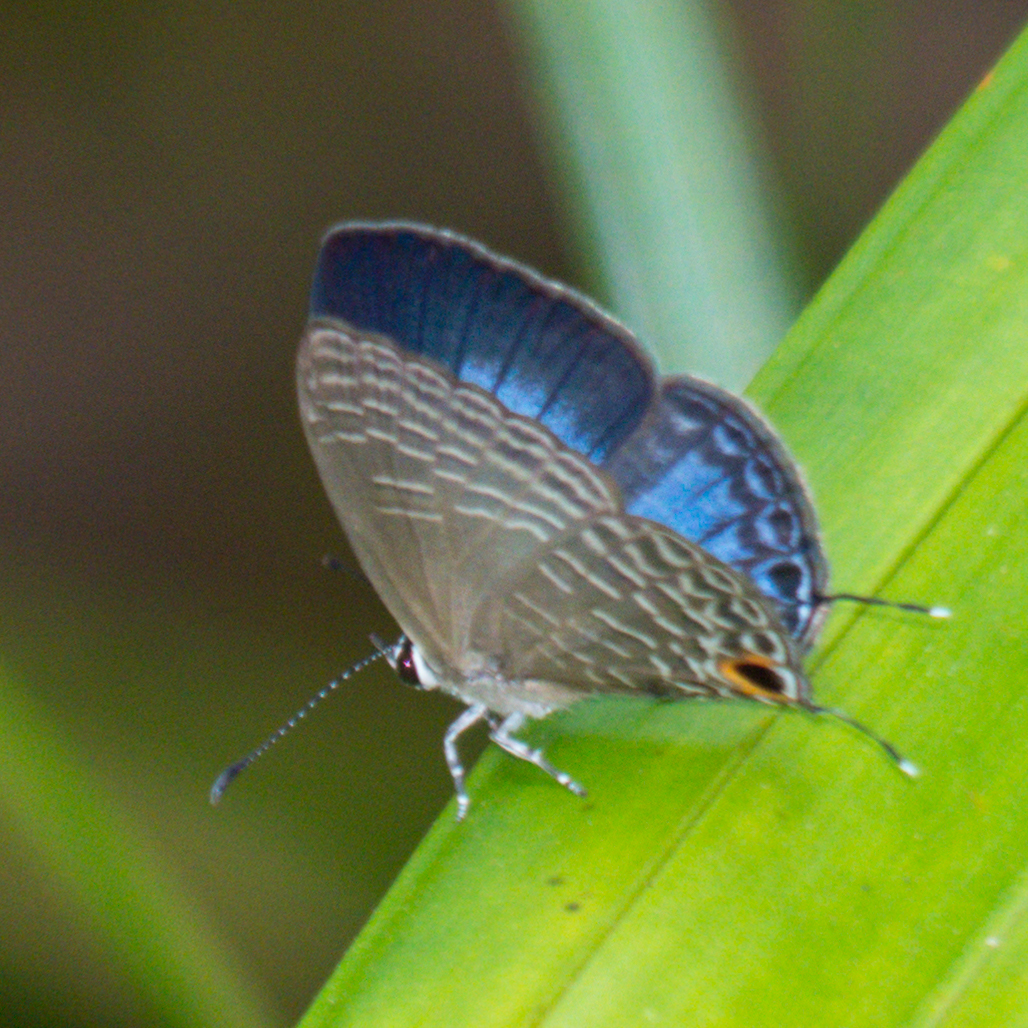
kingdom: Animalia
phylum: Arthropoda
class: Insecta
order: Lepidoptera
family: Lycaenidae
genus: Jamides
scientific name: Jamides bochus
